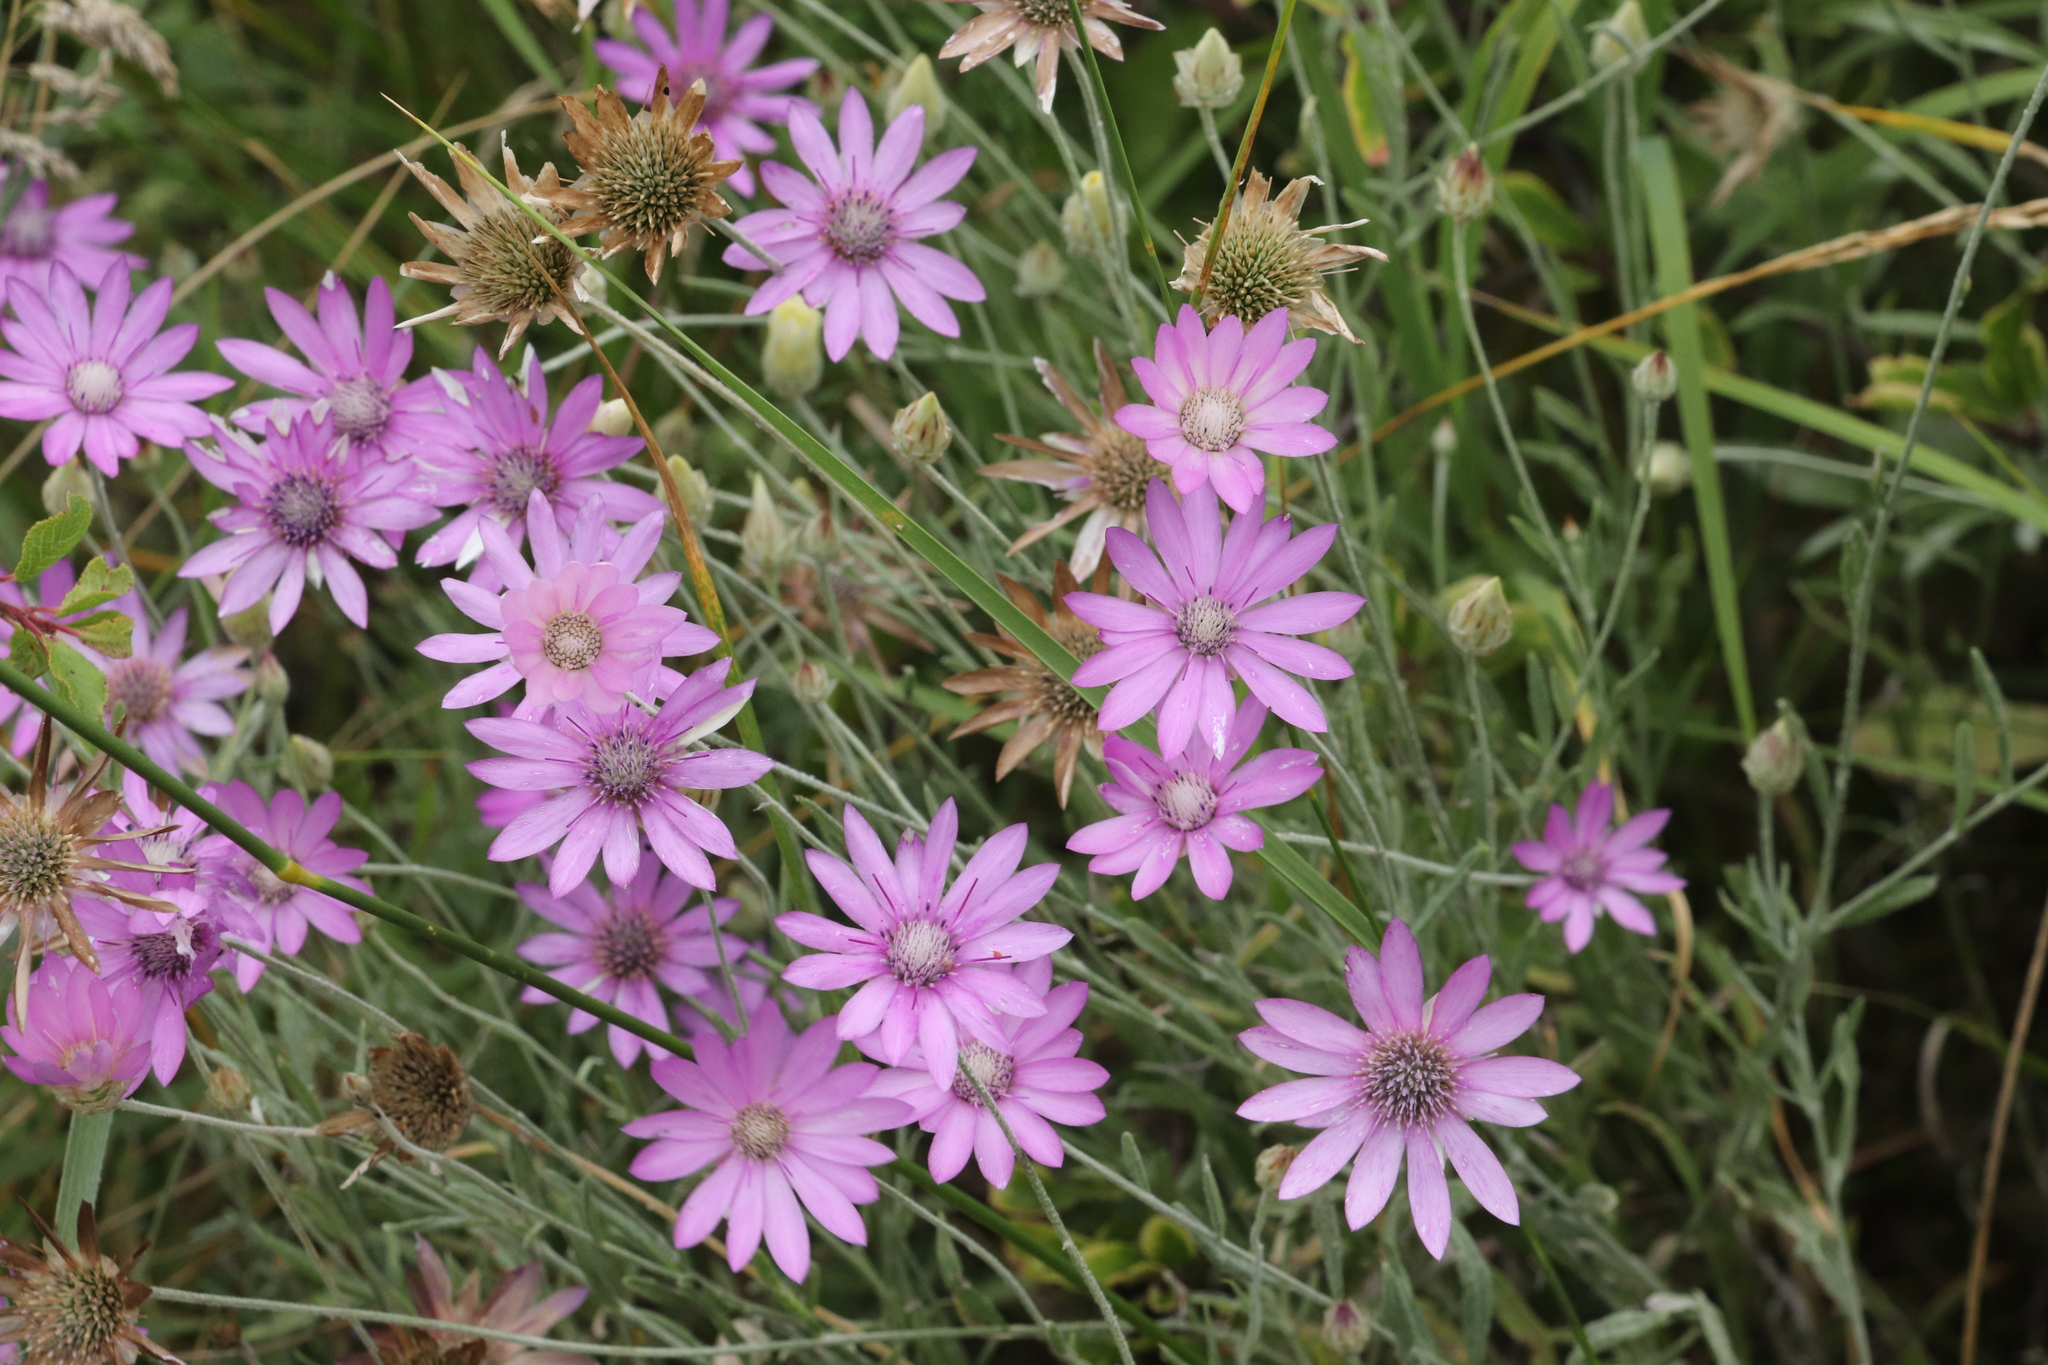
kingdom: Plantae
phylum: Tracheophyta
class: Magnoliopsida
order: Asterales
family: Asteraceae
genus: Xeranthemum
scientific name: Xeranthemum annuum
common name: Immortelle
